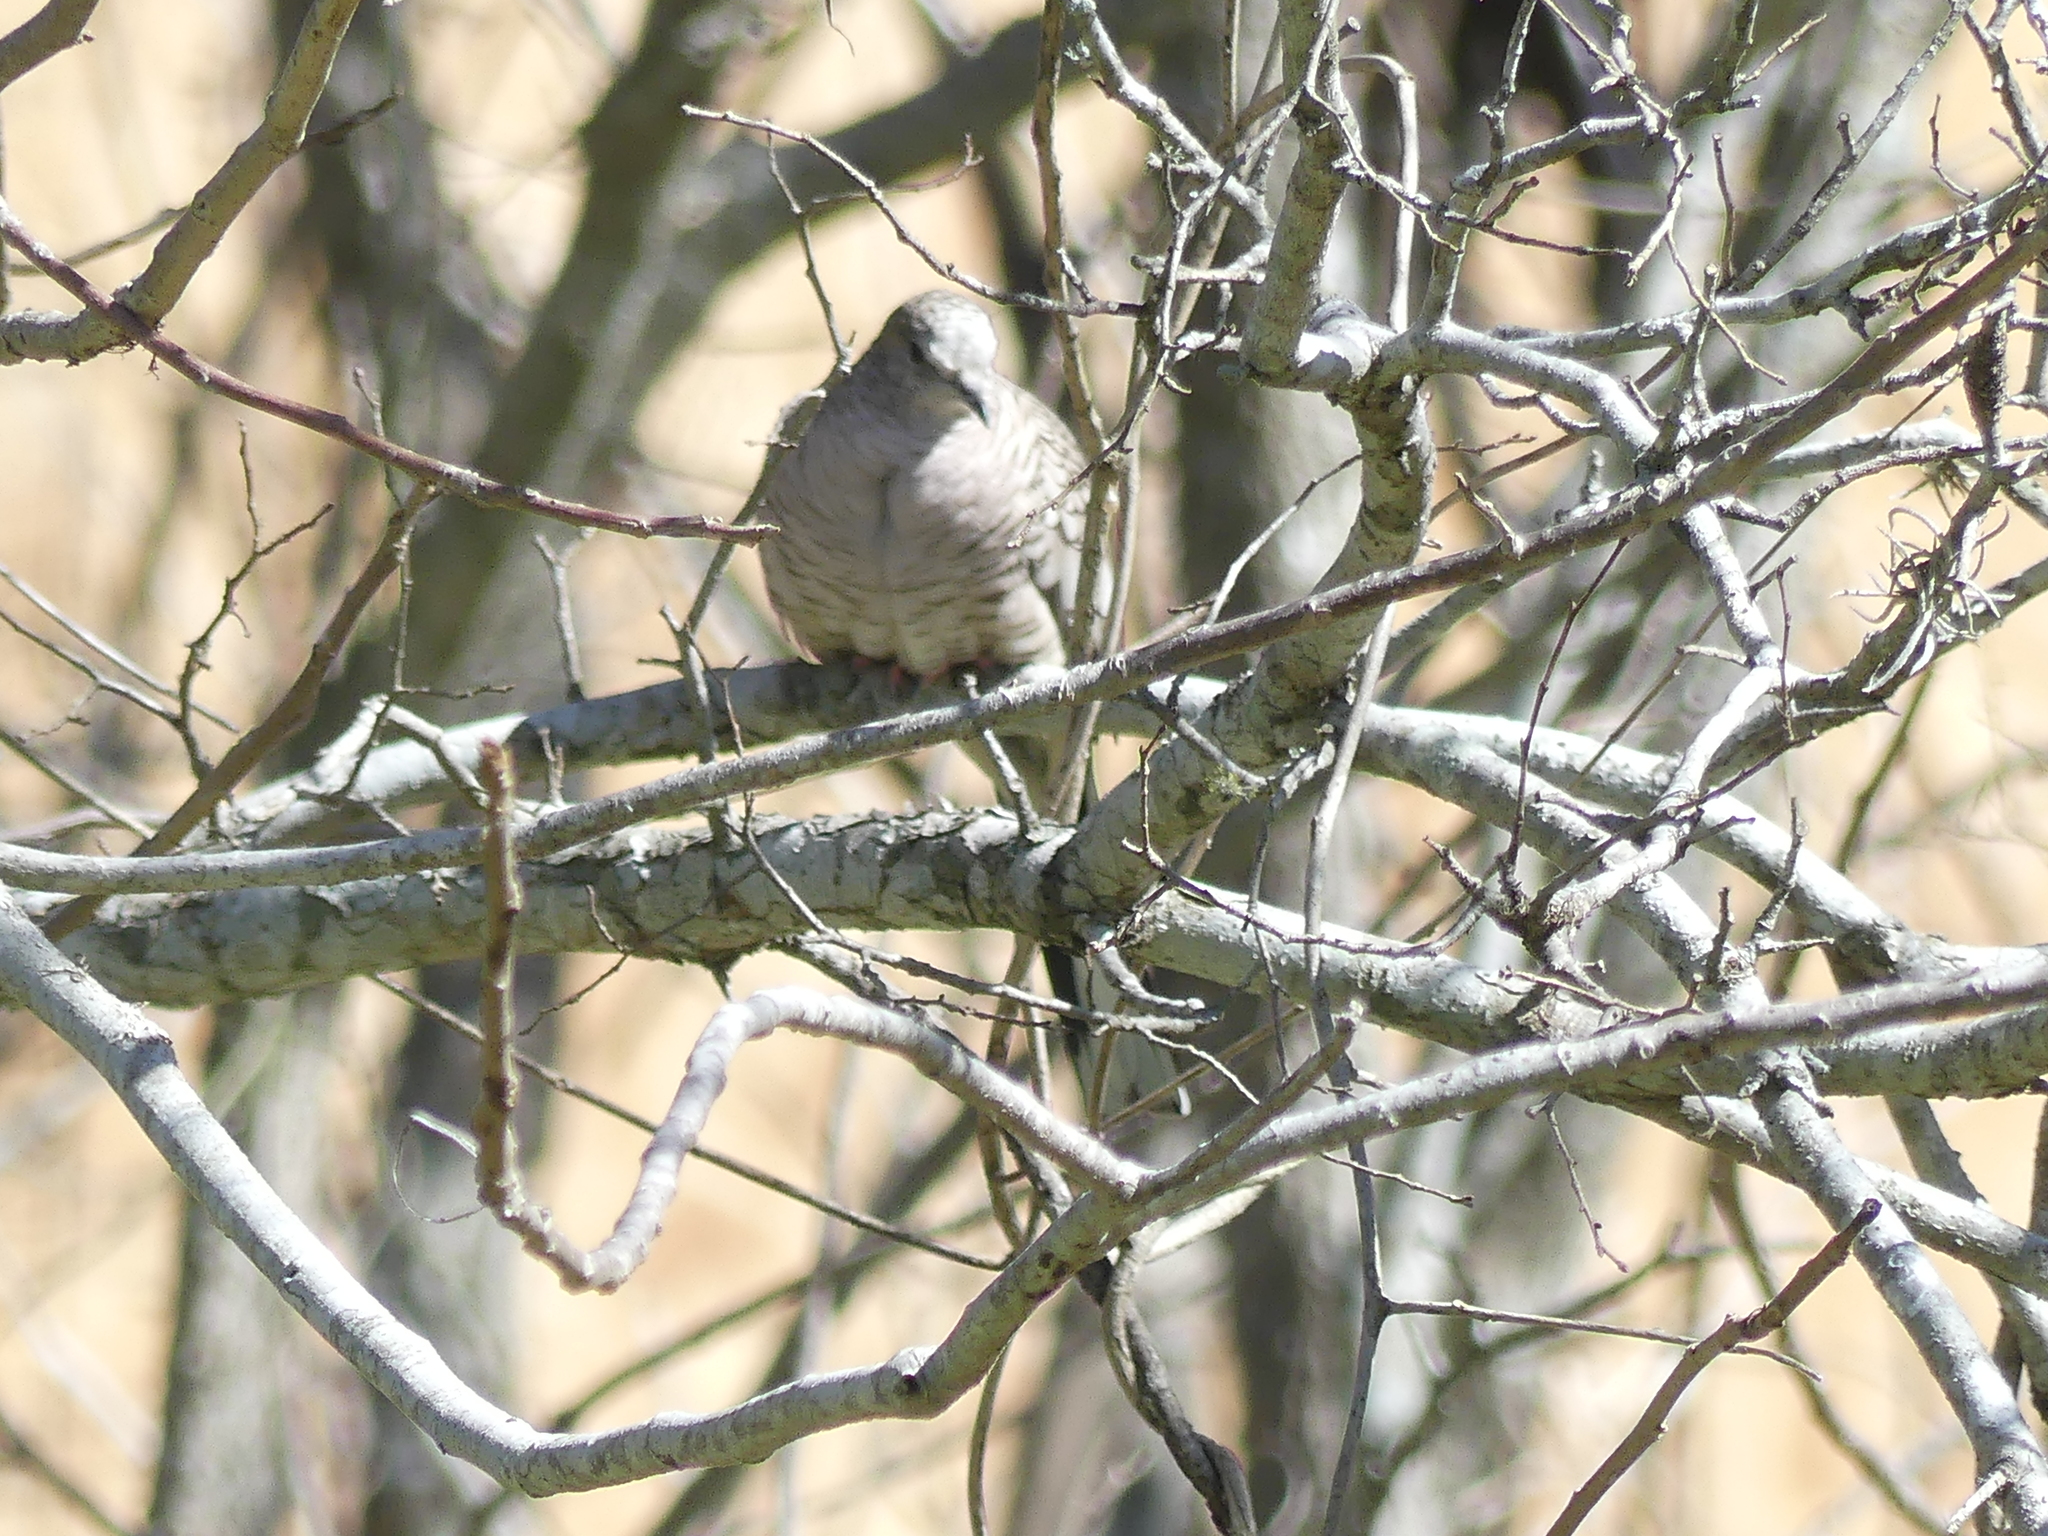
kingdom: Animalia
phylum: Chordata
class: Aves
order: Columbiformes
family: Columbidae
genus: Columbina
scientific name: Columbina inca
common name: Inca dove
